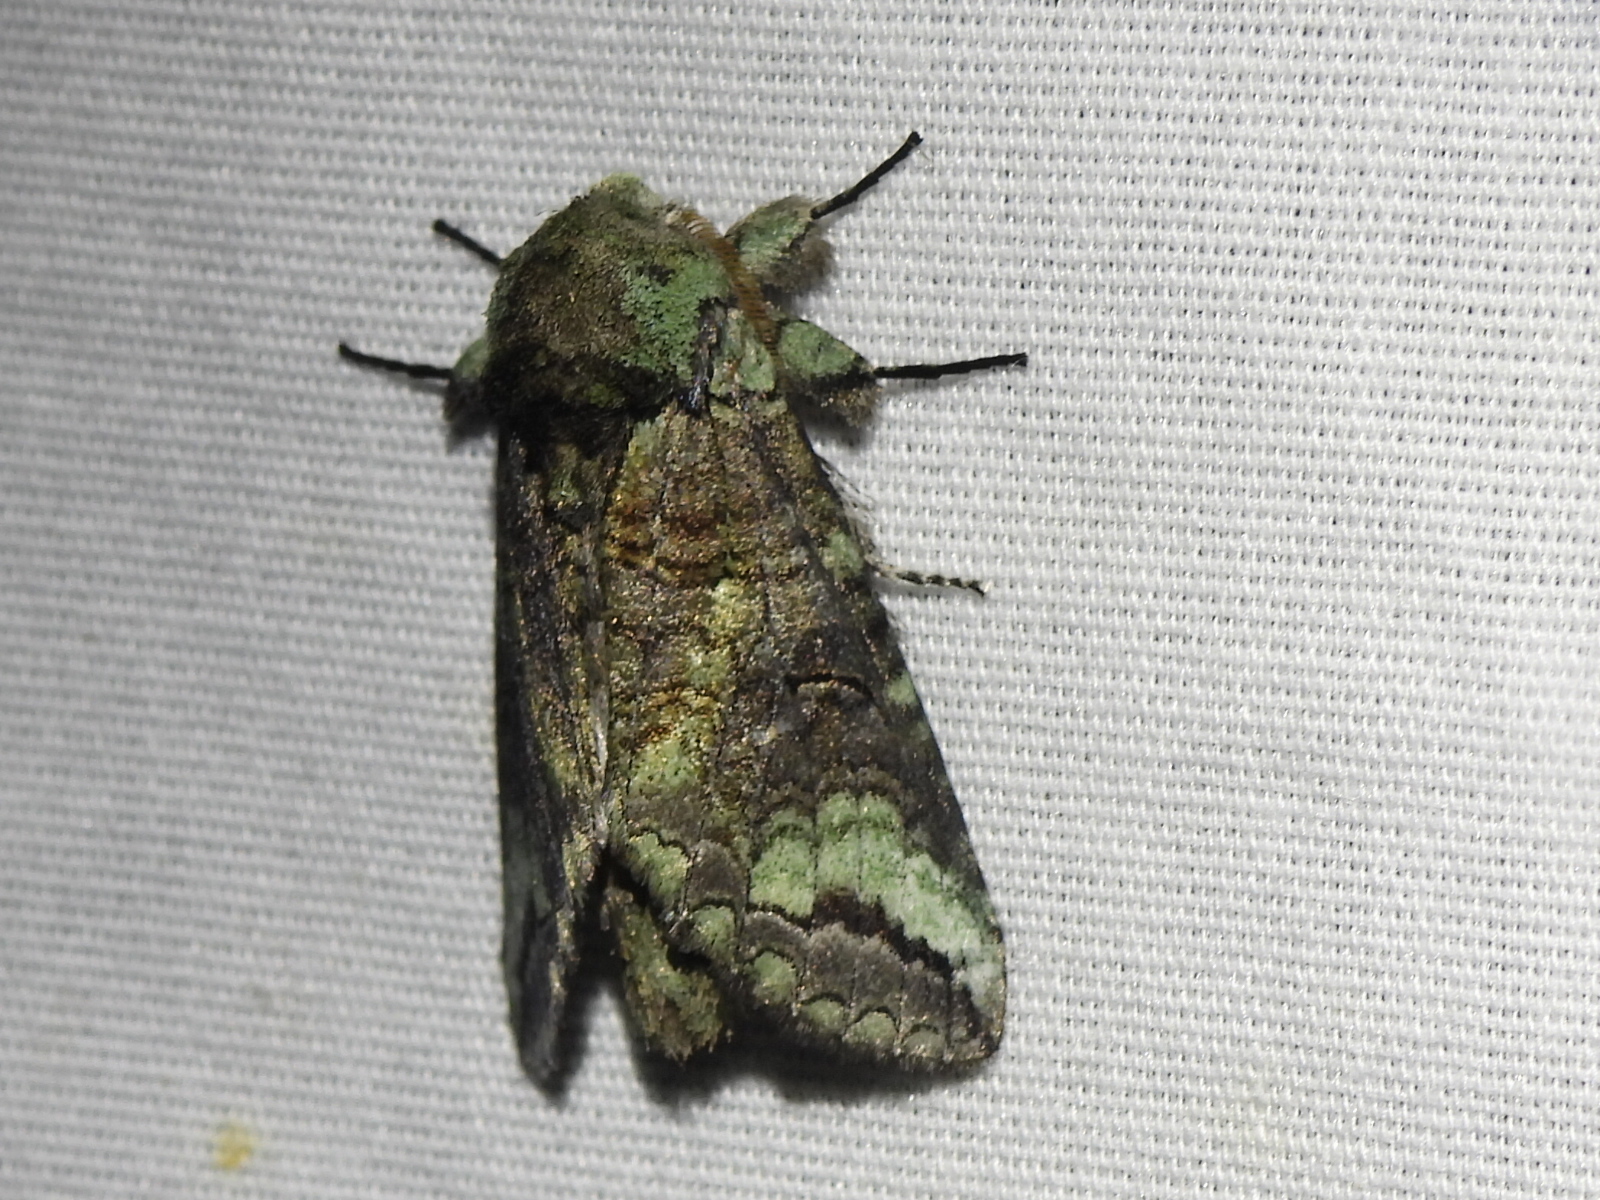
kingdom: Animalia
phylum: Arthropoda
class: Insecta
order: Lepidoptera
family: Notodontidae
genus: Heterocampa
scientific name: Heterocampa astartoides
